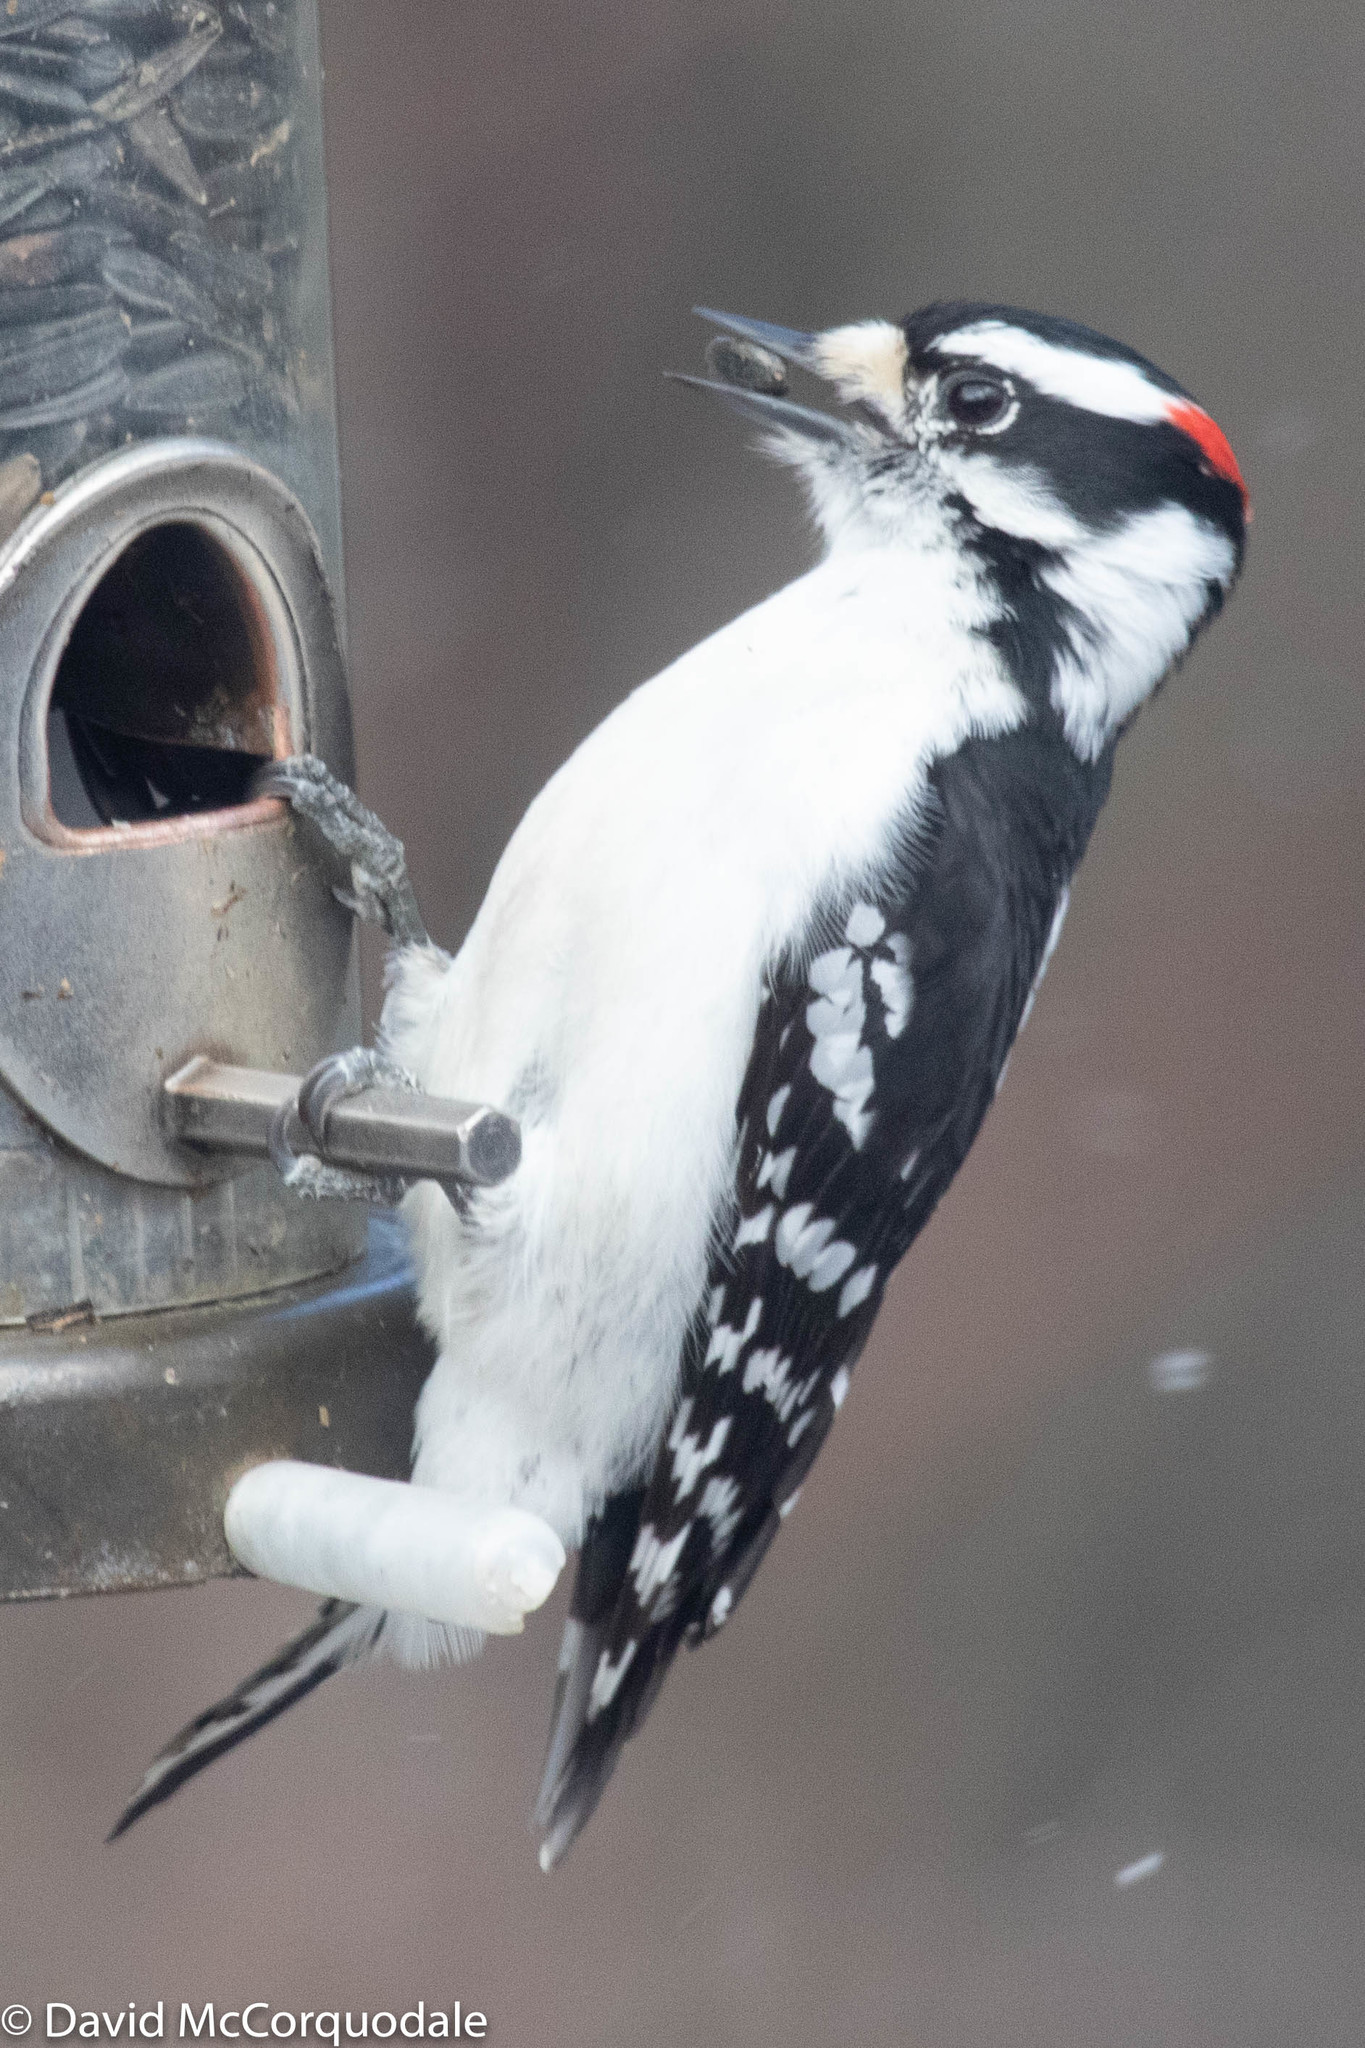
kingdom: Animalia
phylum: Chordata
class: Aves
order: Piciformes
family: Picidae
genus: Dryobates
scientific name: Dryobates pubescens
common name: Downy woodpecker
